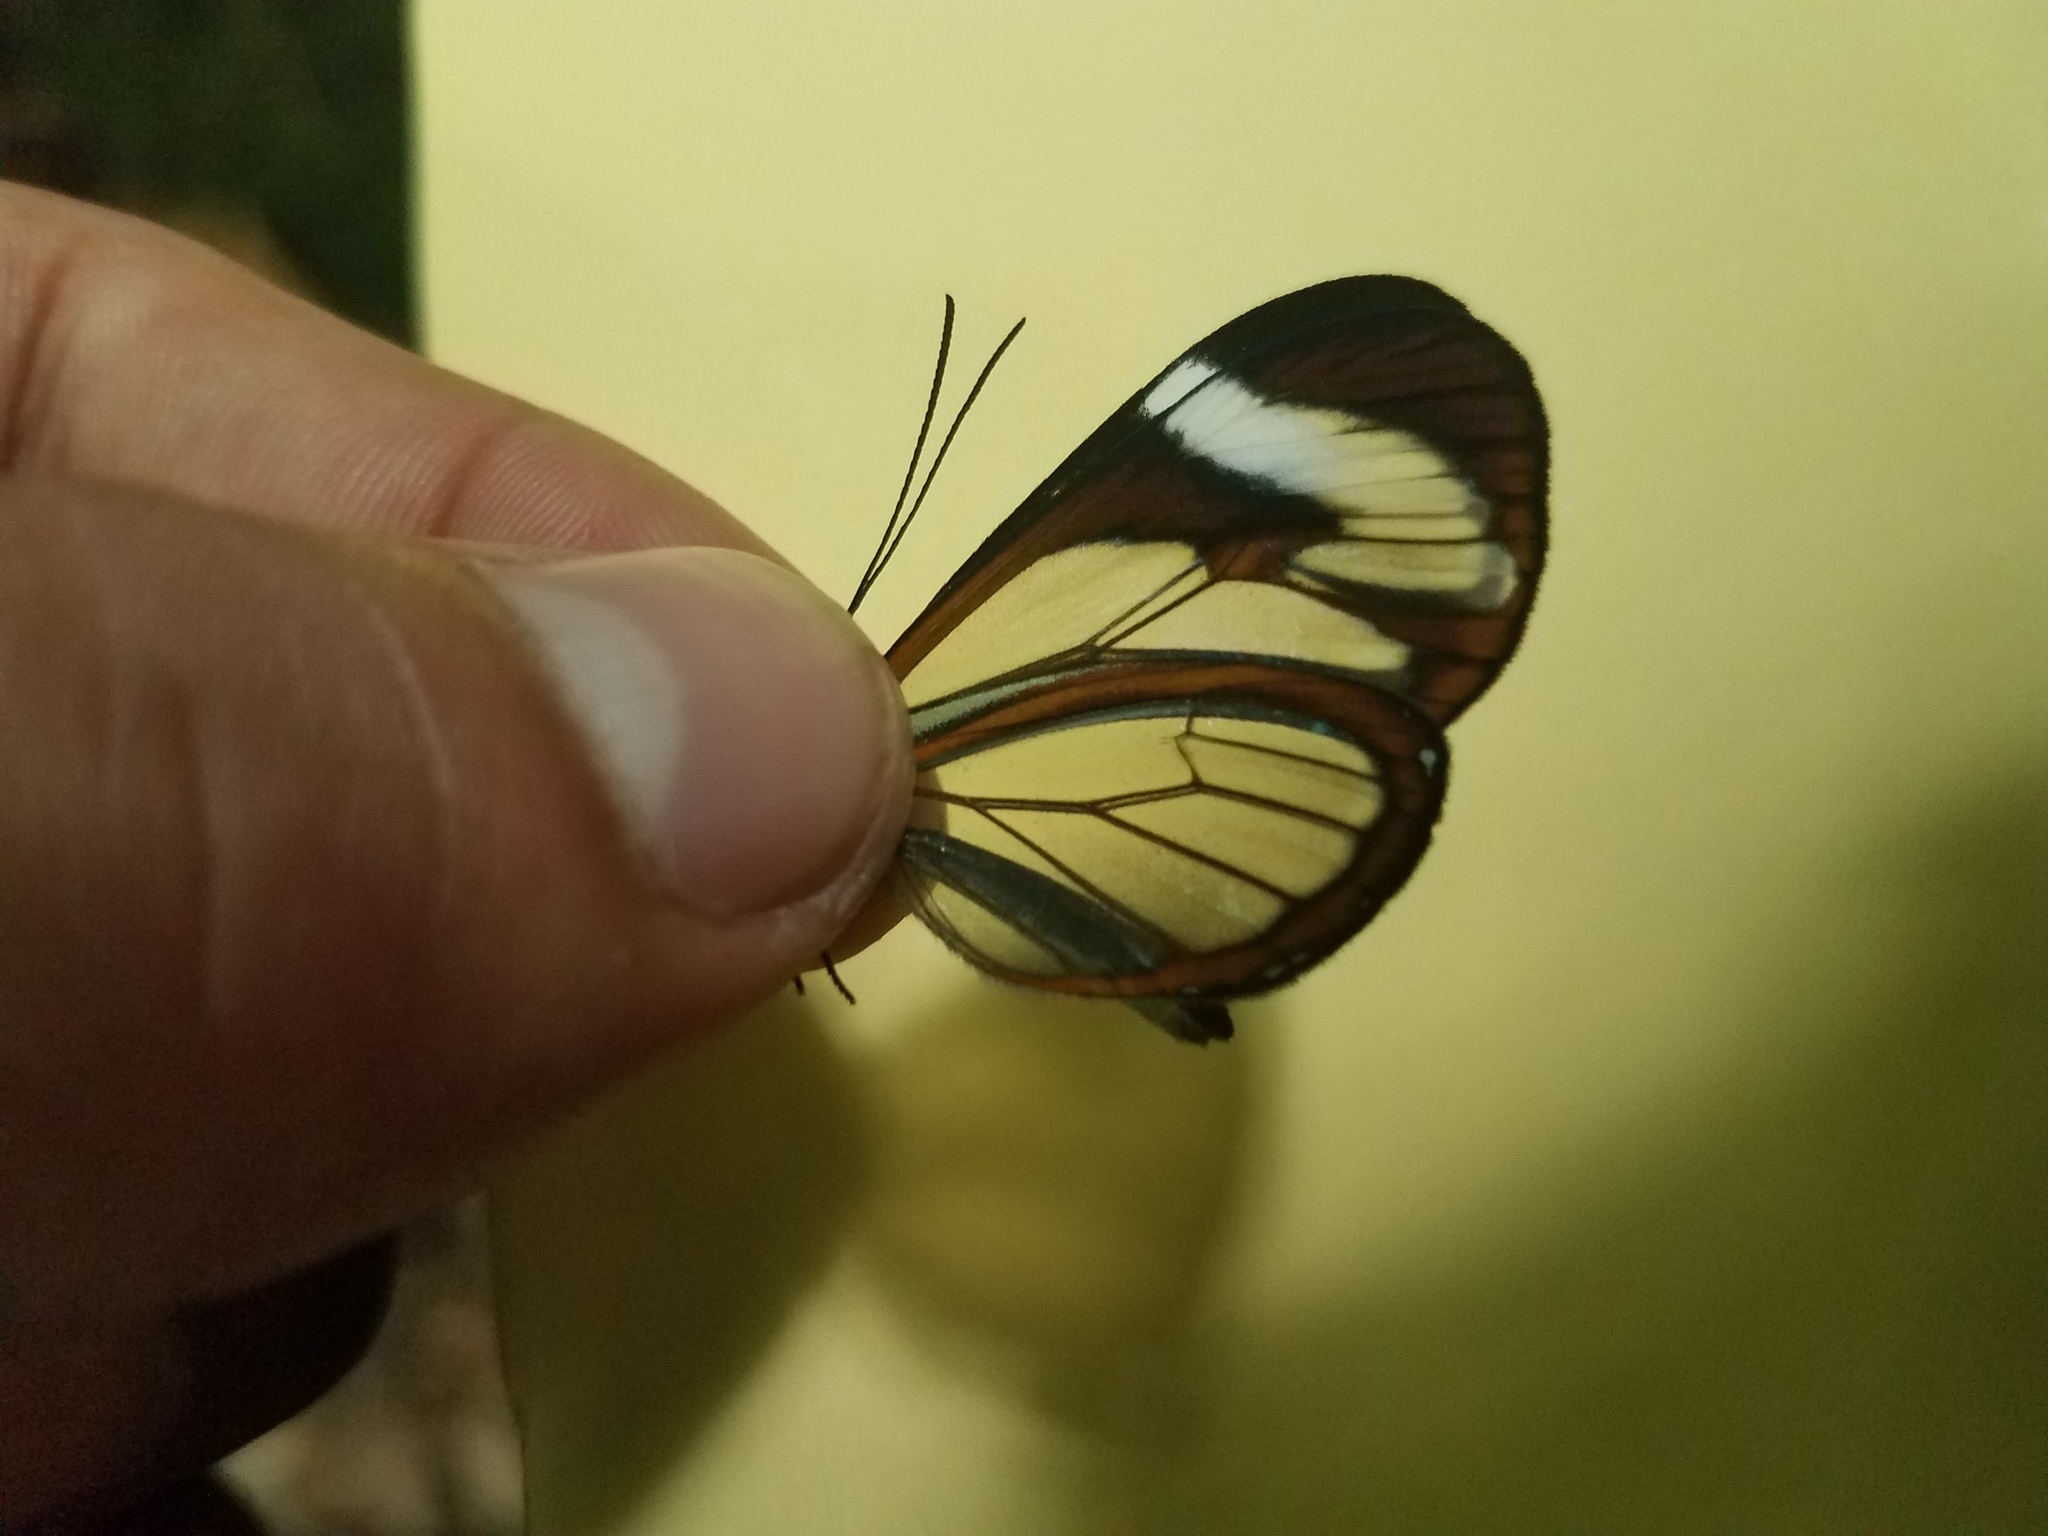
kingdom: Animalia
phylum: Arthropoda
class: Insecta
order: Lepidoptera
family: Nymphalidae
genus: Ithomia
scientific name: Ithomia patilla
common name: Patilla clearwing
